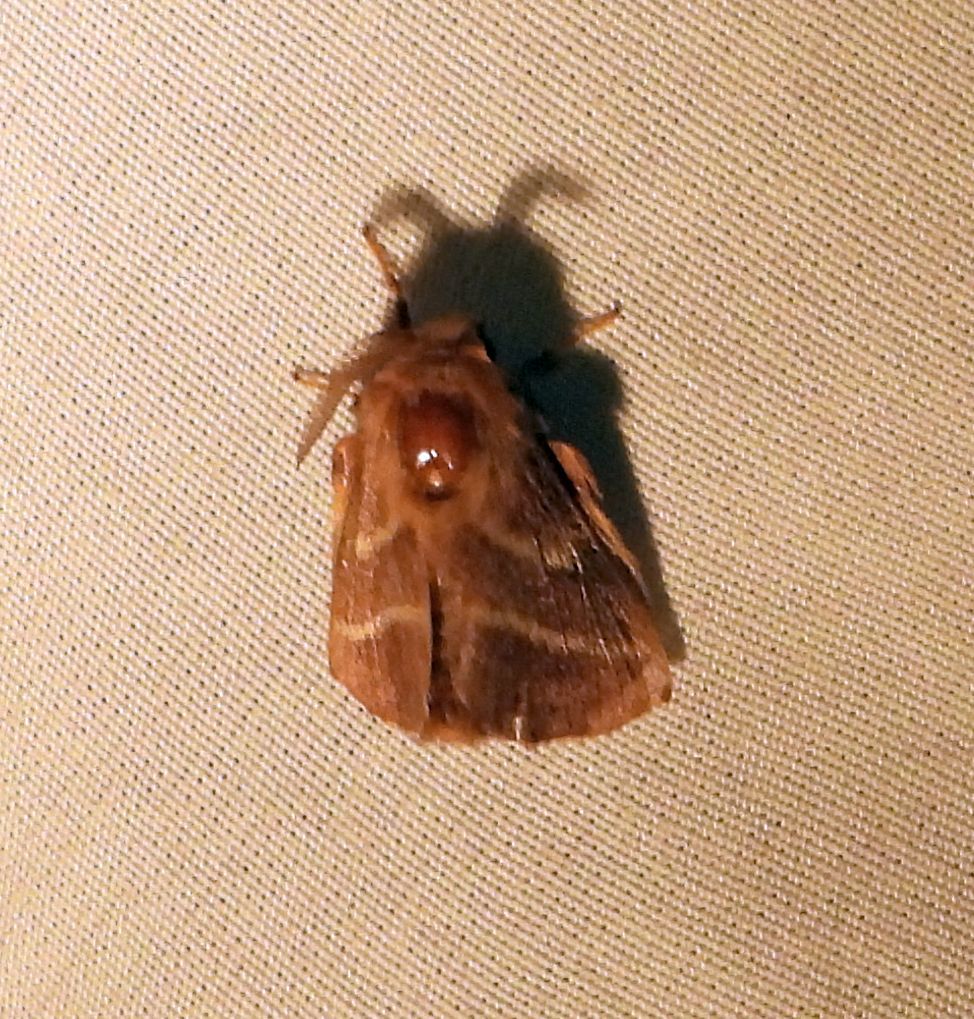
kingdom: Animalia
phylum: Arthropoda
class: Insecta
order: Lepidoptera
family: Lasiocampidae
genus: Malacosoma
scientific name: Malacosoma americana
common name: Eastern tent caterpillar moth
